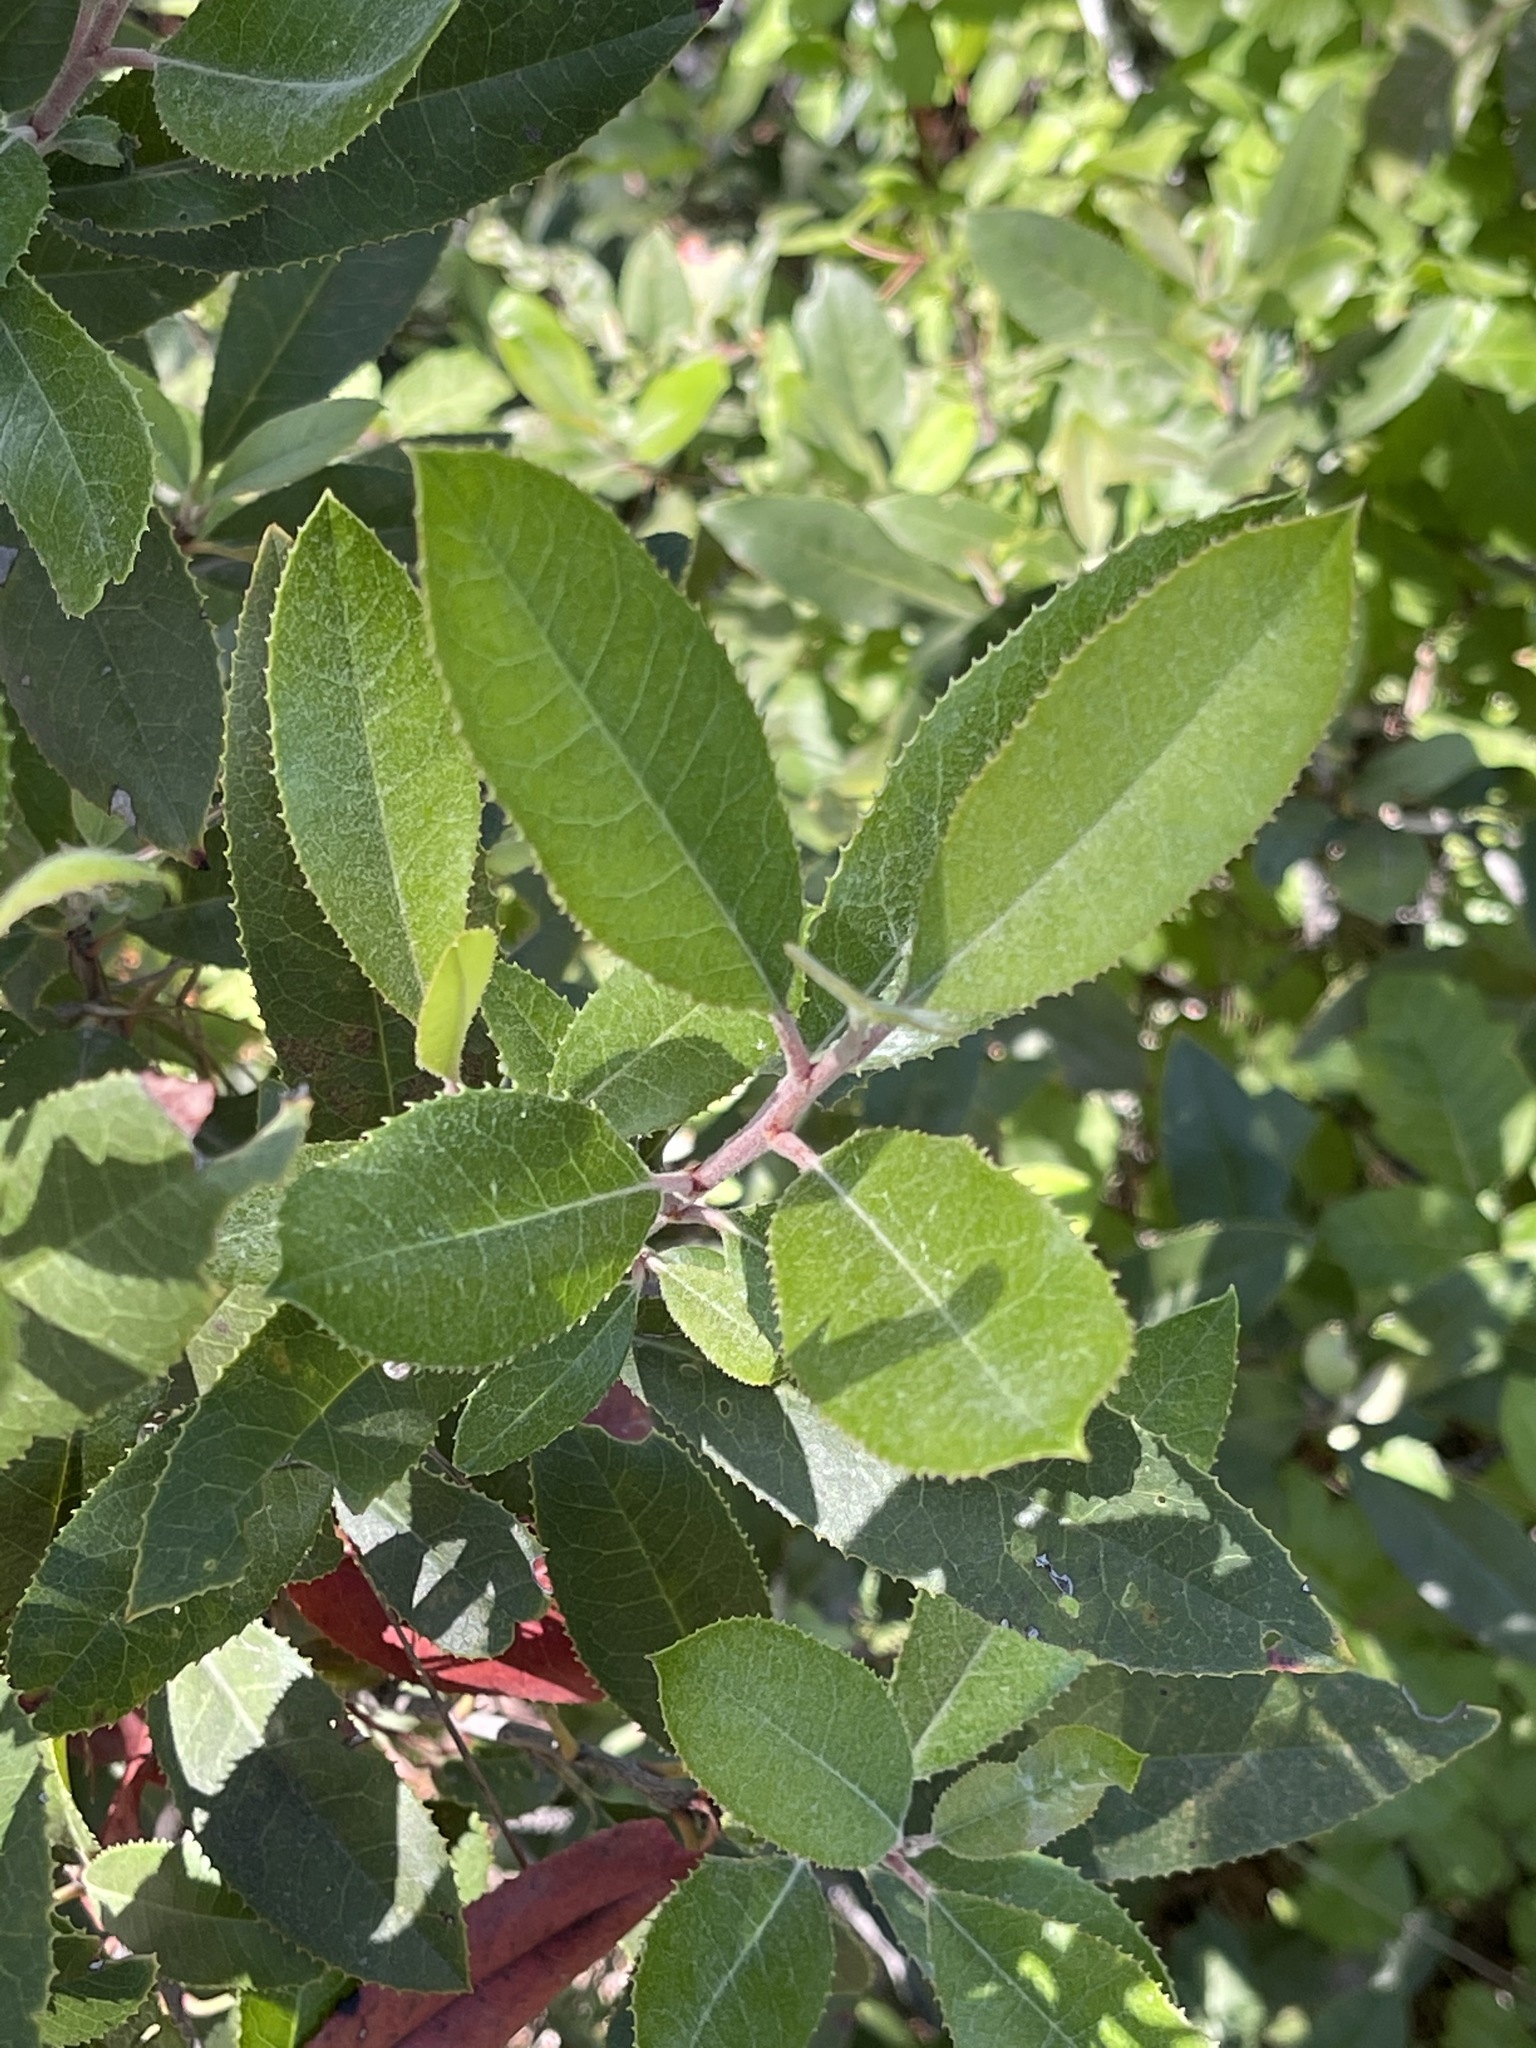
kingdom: Plantae
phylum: Tracheophyta
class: Magnoliopsida
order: Rosales
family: Rosaceae
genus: Heteromeles
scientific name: Heteromeles arbutifolia
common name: California-holly
